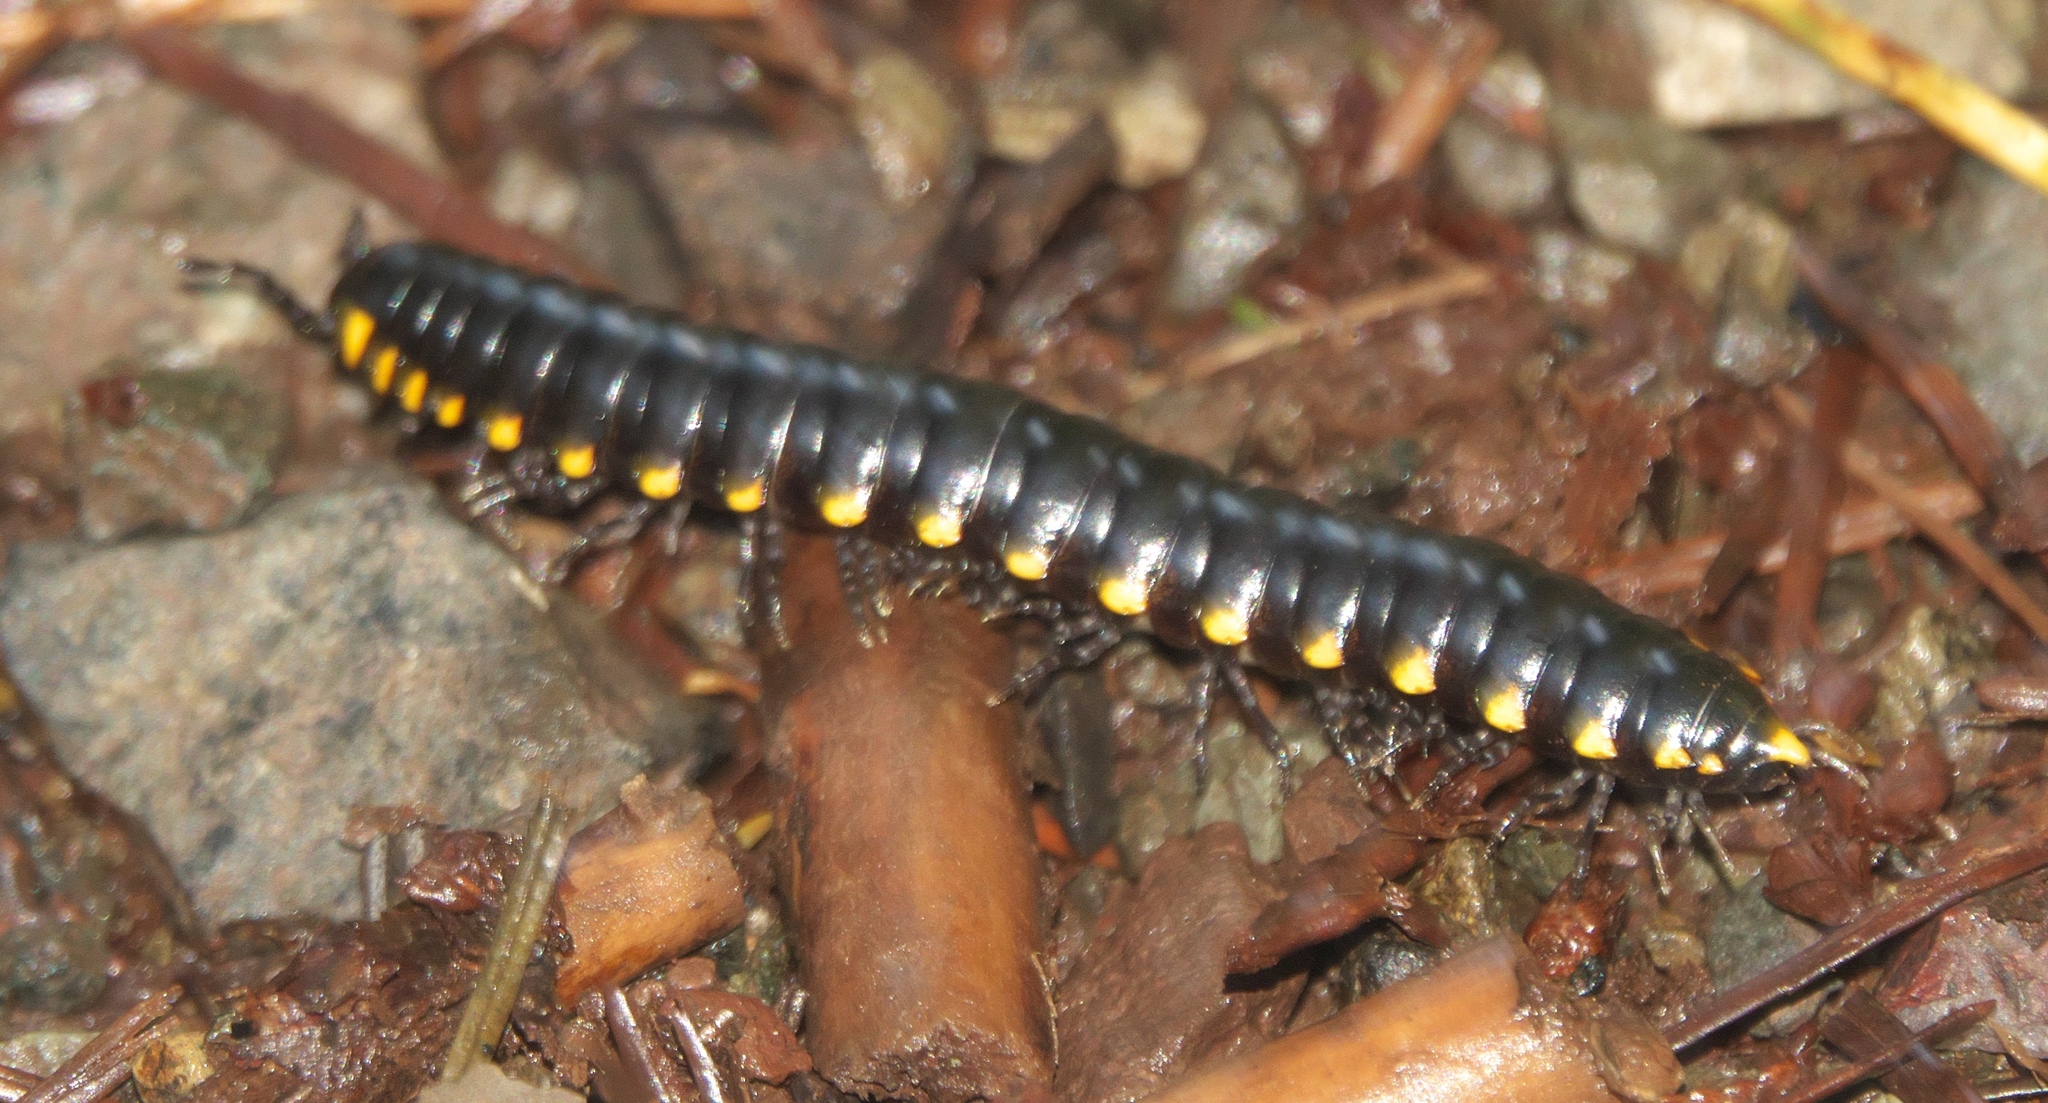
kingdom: Animalia
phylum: Arthropoda
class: Diplopoda
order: Polydesmida
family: Xystodesmidae
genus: Harpaphe
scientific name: Harpaphe haydeniana
